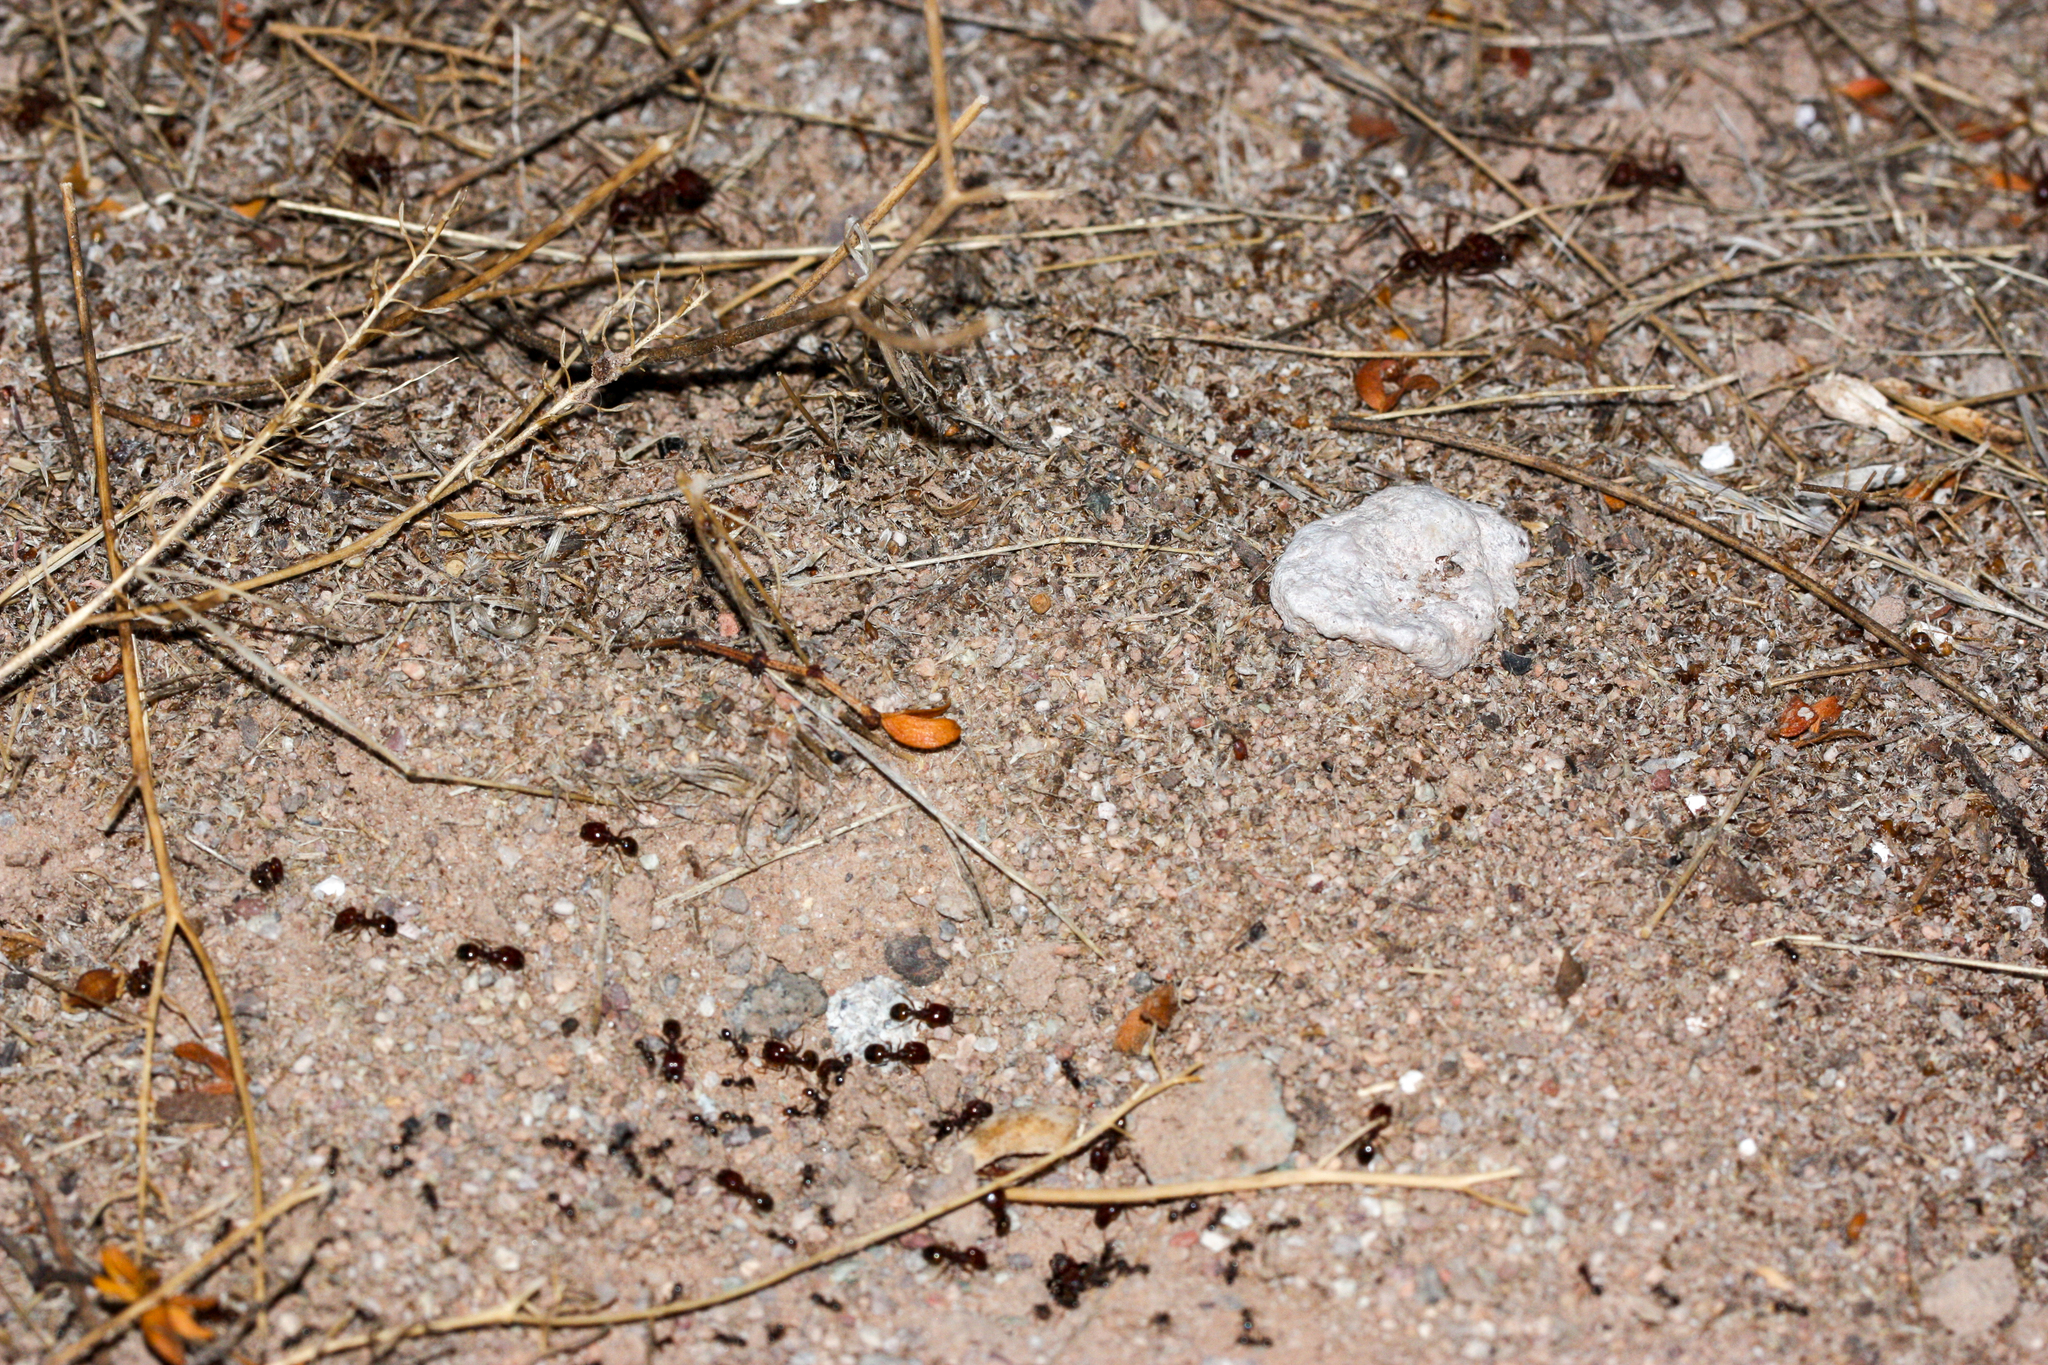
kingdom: Animalia
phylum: Arthropoda
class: Insecta
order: Hymenoptera
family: Formicidae
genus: Pheidole
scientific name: Pheidole xerophila
